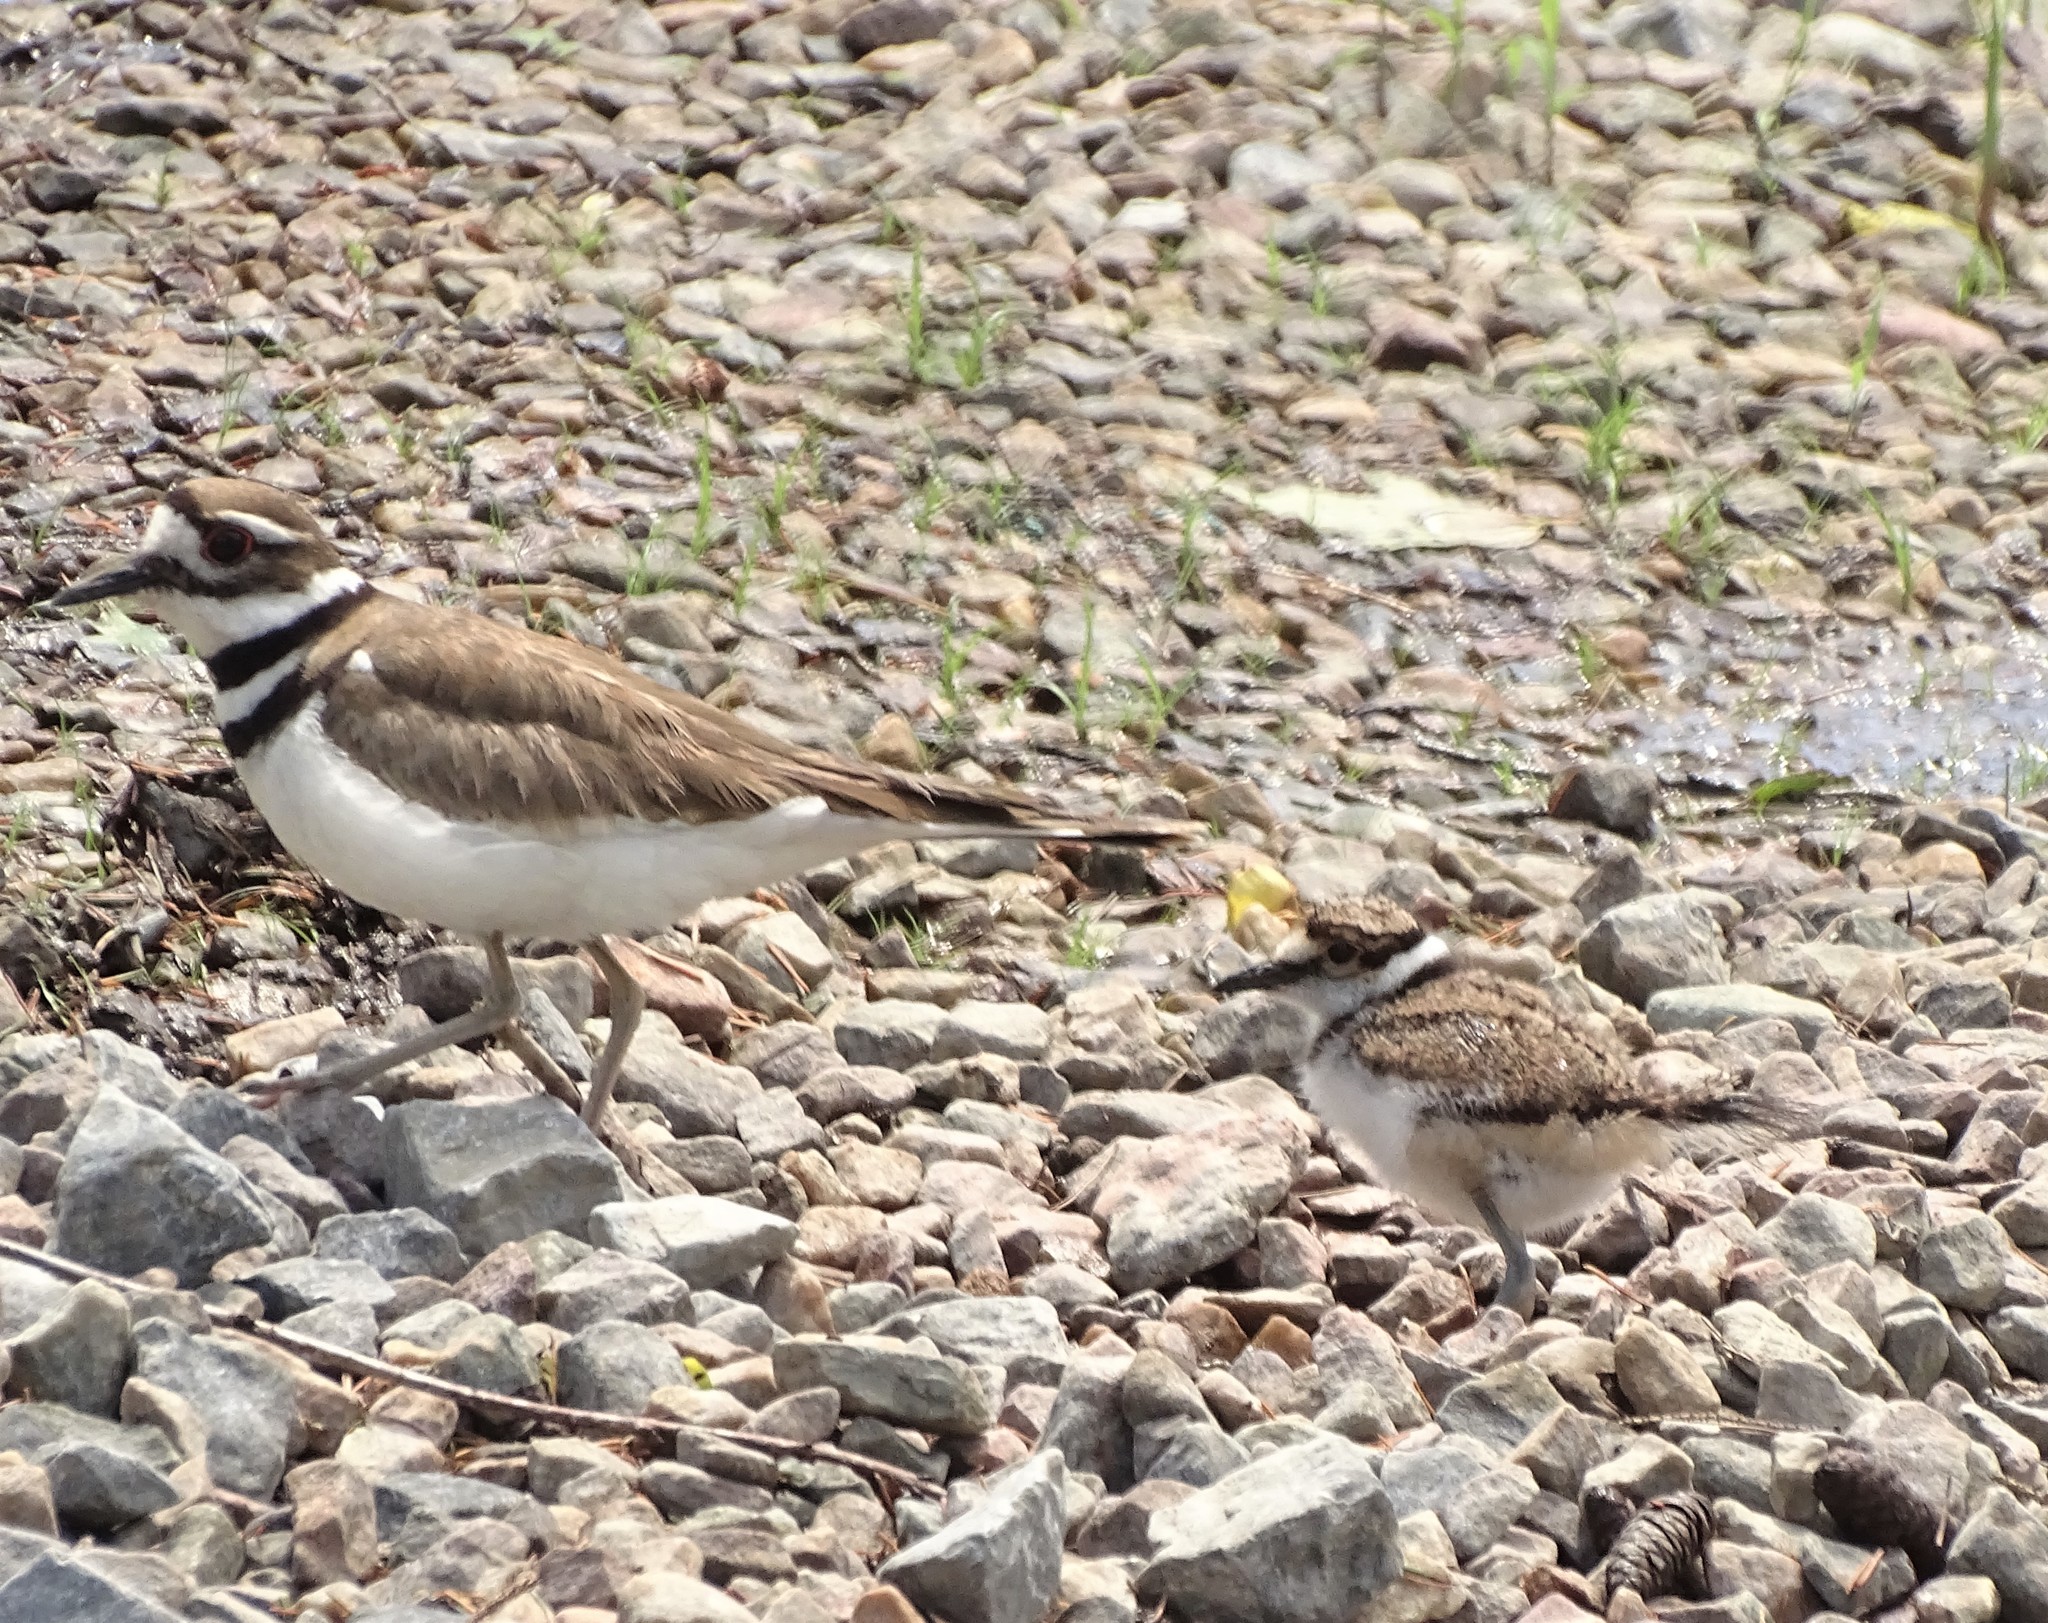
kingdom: Animalia
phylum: Chordata
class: Aves
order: Charadriiformes
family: Charadriidae
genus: Charadrius
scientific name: Charadrius vociferus
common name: Killdeer
